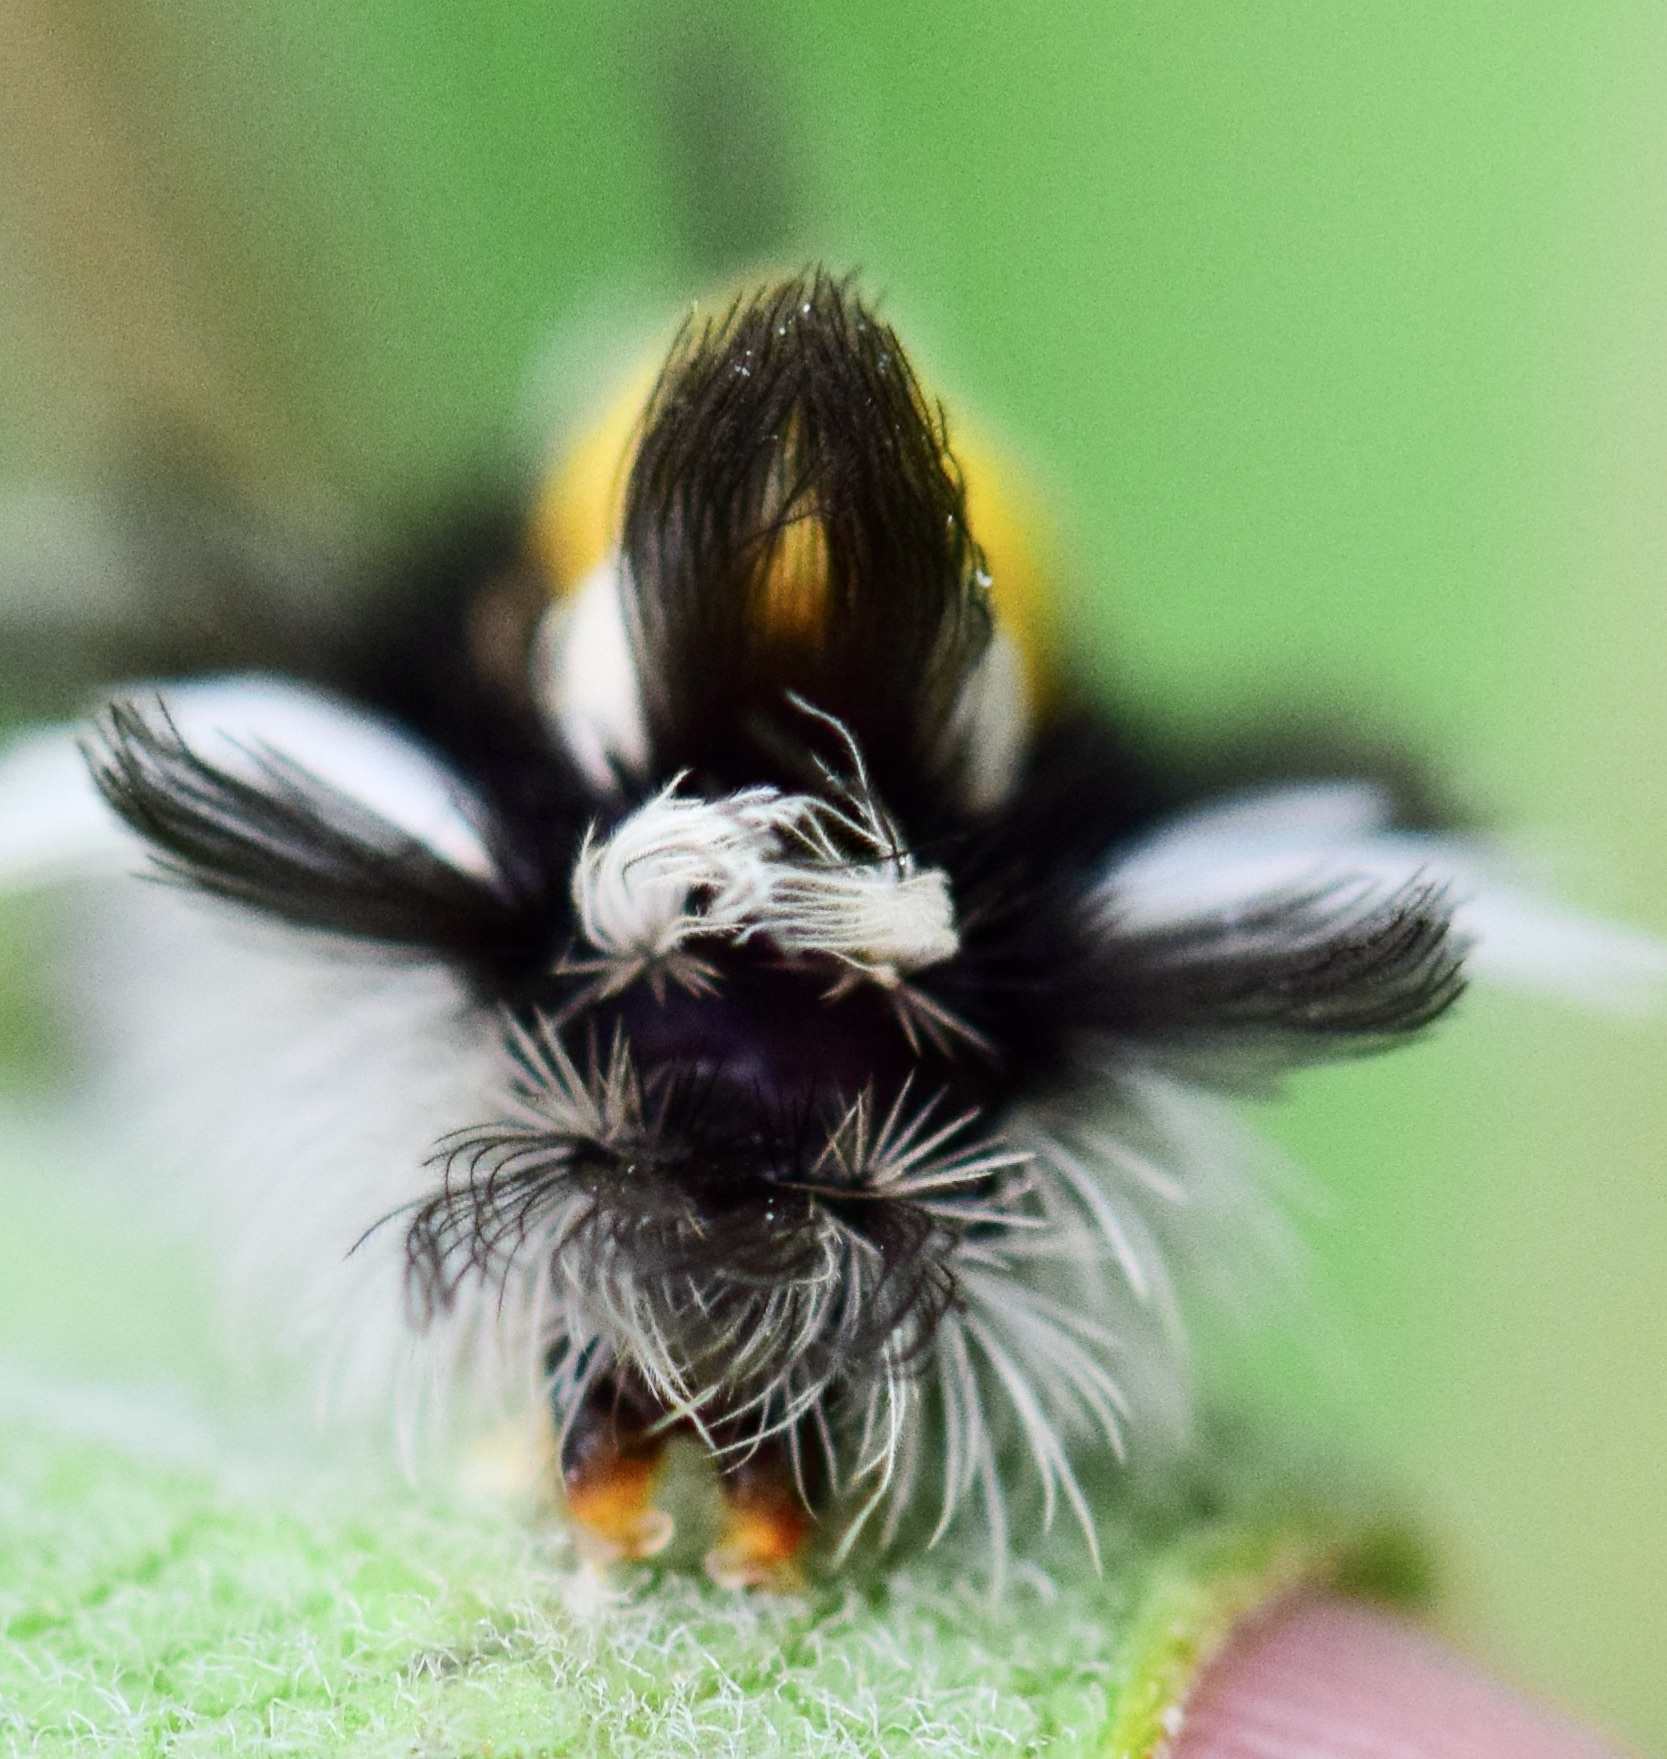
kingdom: Animalia
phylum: Arthropoda
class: Insecta
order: Lepidoptera
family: Erebidae
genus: Euchaetes
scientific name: Euchaetes egle
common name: Milkweed tussock moth
